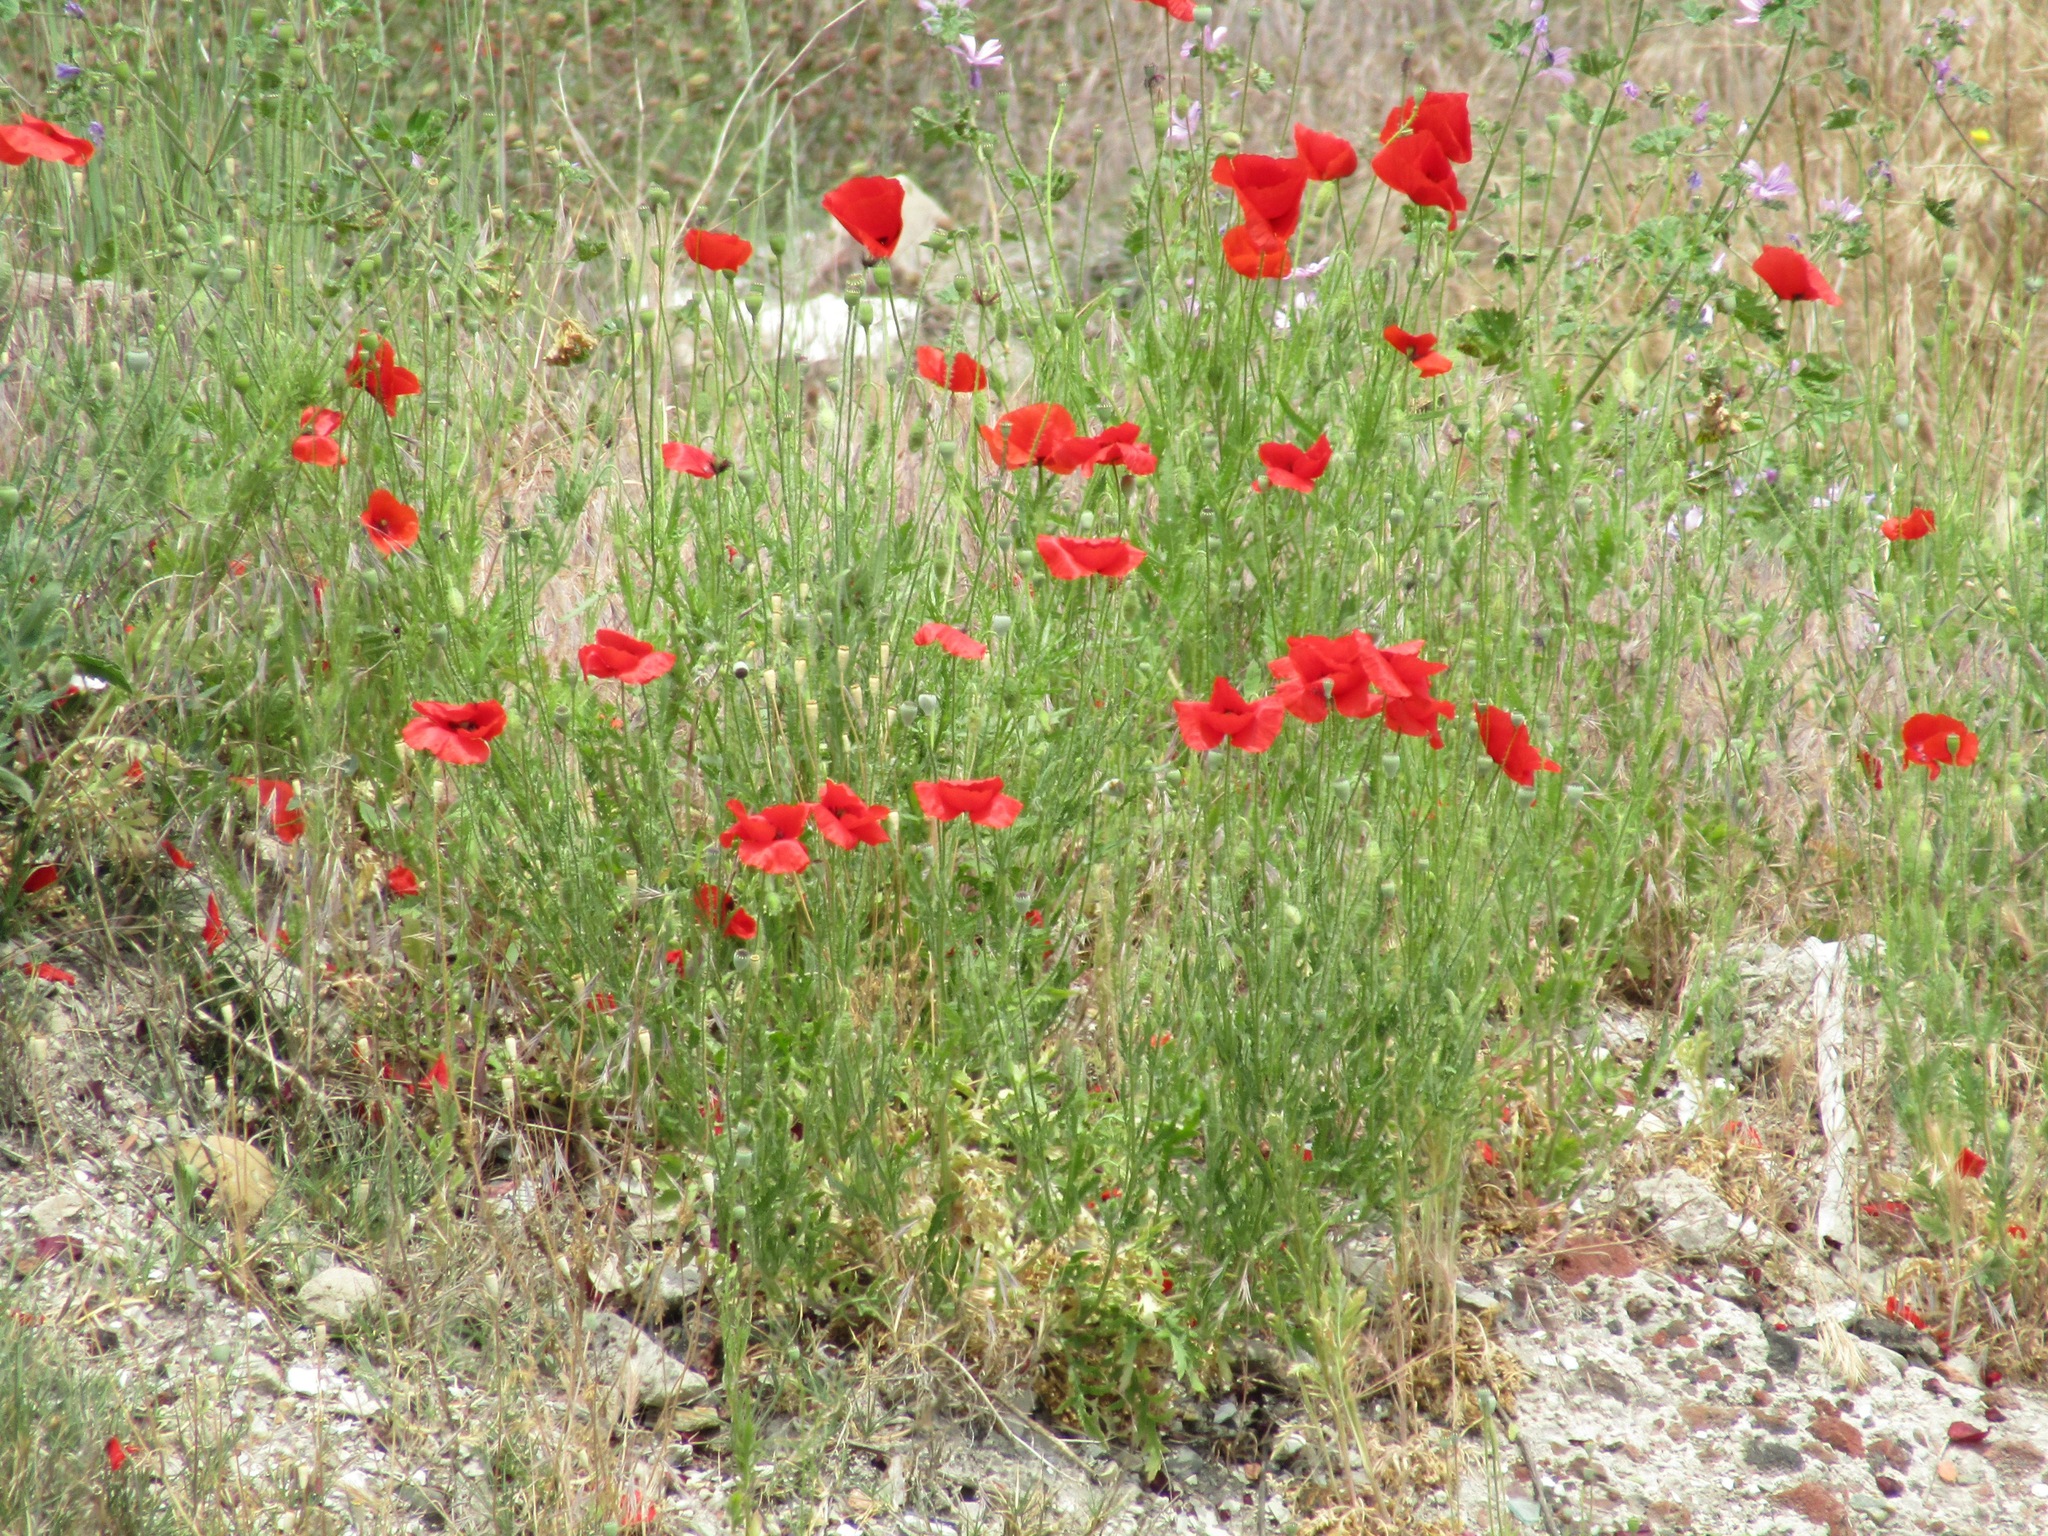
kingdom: Plantae
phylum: Tracheophyta
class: Magnoliopsida
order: Ranunculales
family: Papaveraceae
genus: Papaver
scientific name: Papaver rhoeas
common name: Corn poppy
